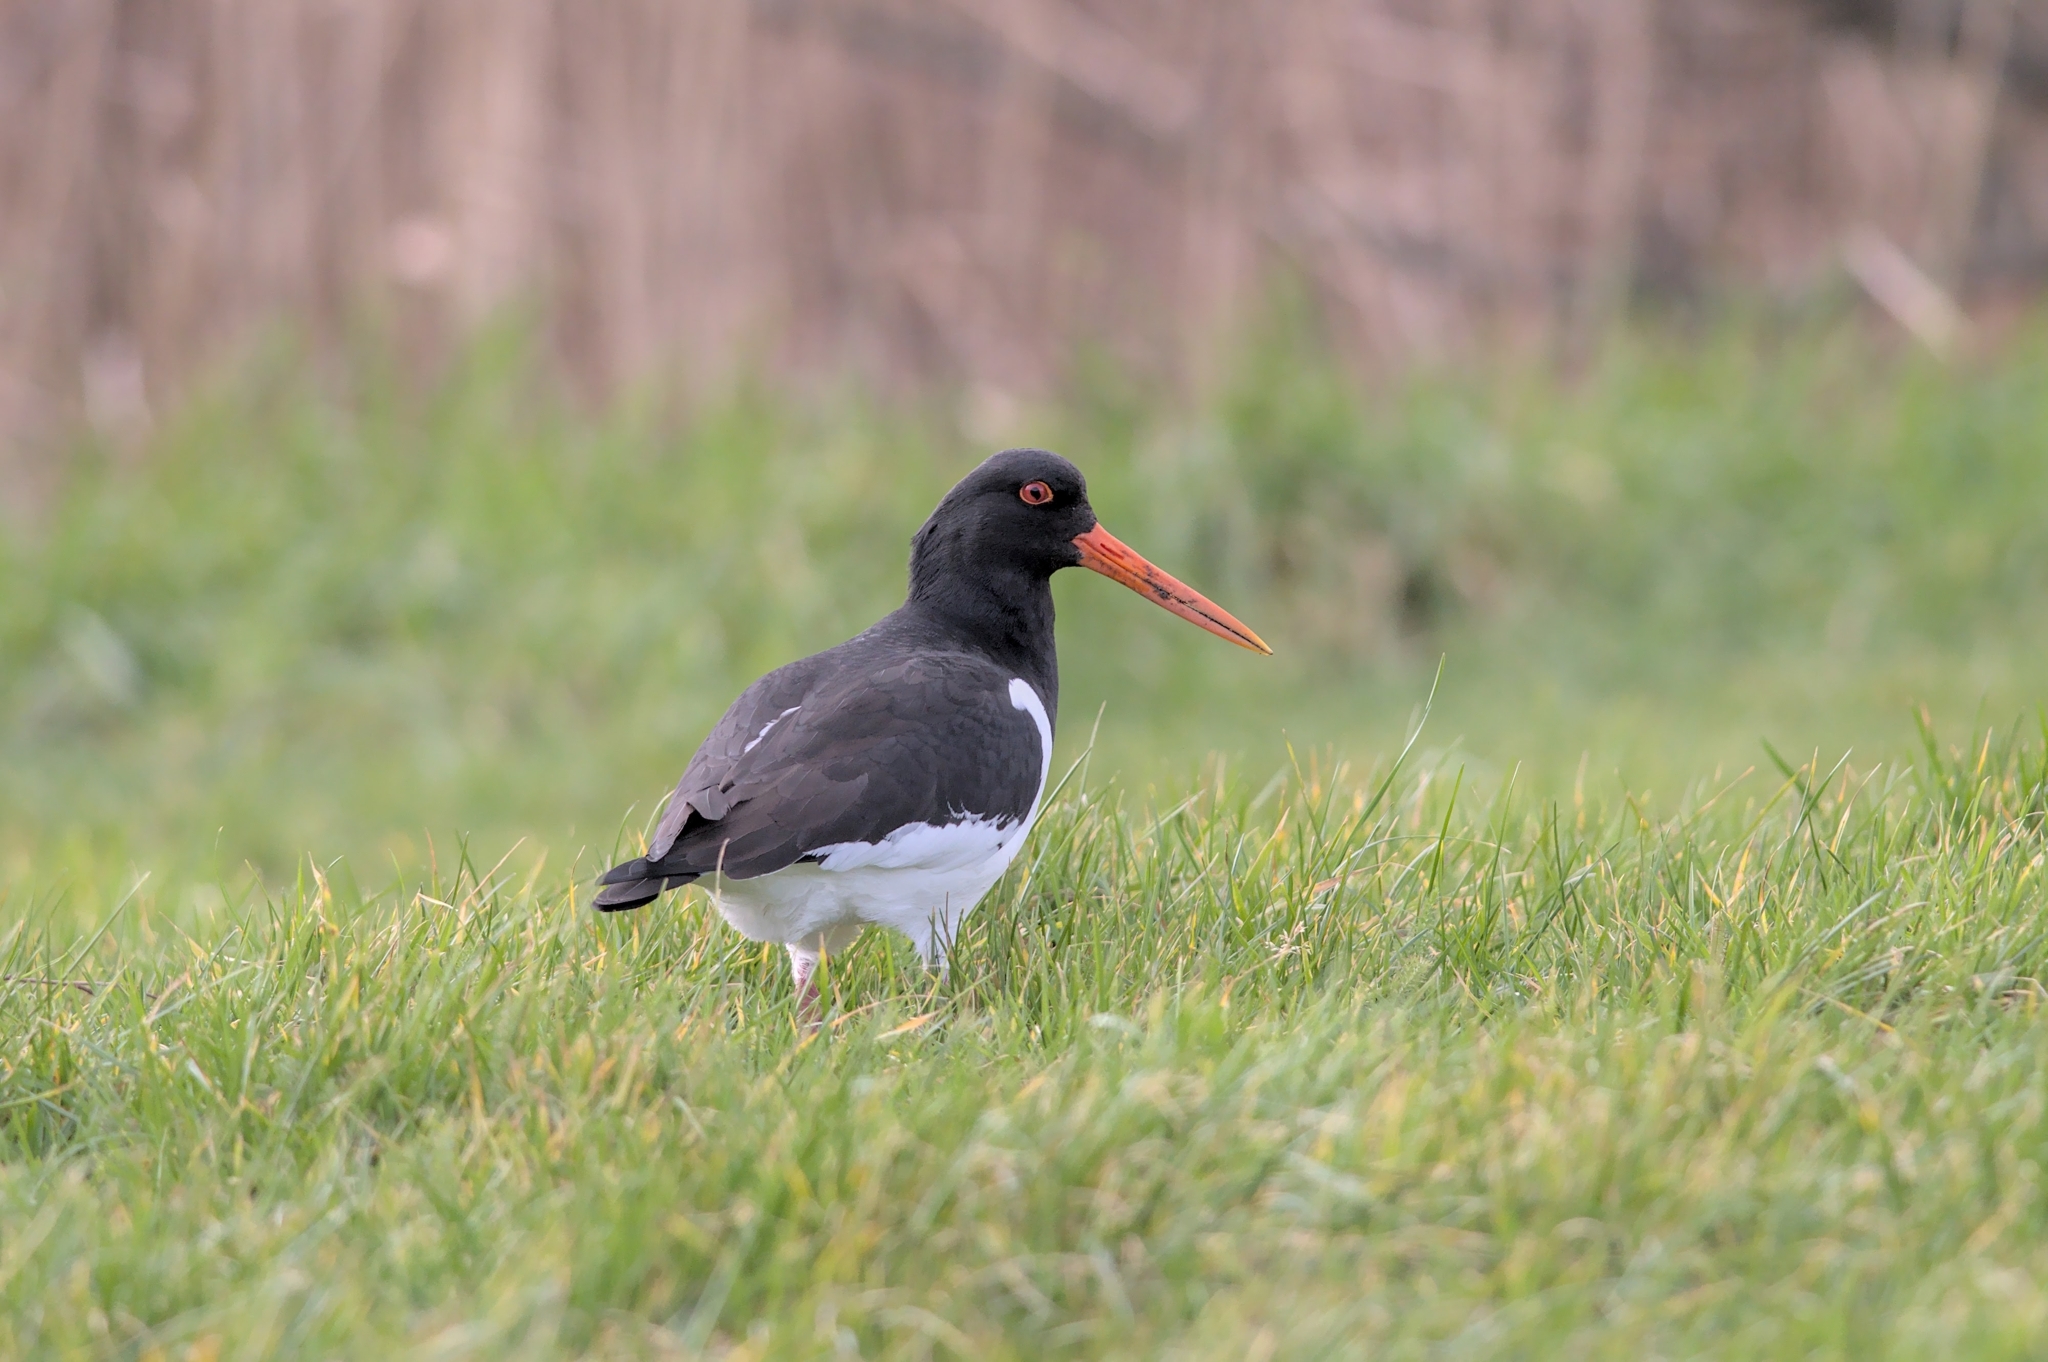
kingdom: Animalia
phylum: Chordata
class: Aves
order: Charadriiformes
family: Haematopodidae
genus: Haematopus
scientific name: Haematopus ostralegus
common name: Eurasian oystercatcher
